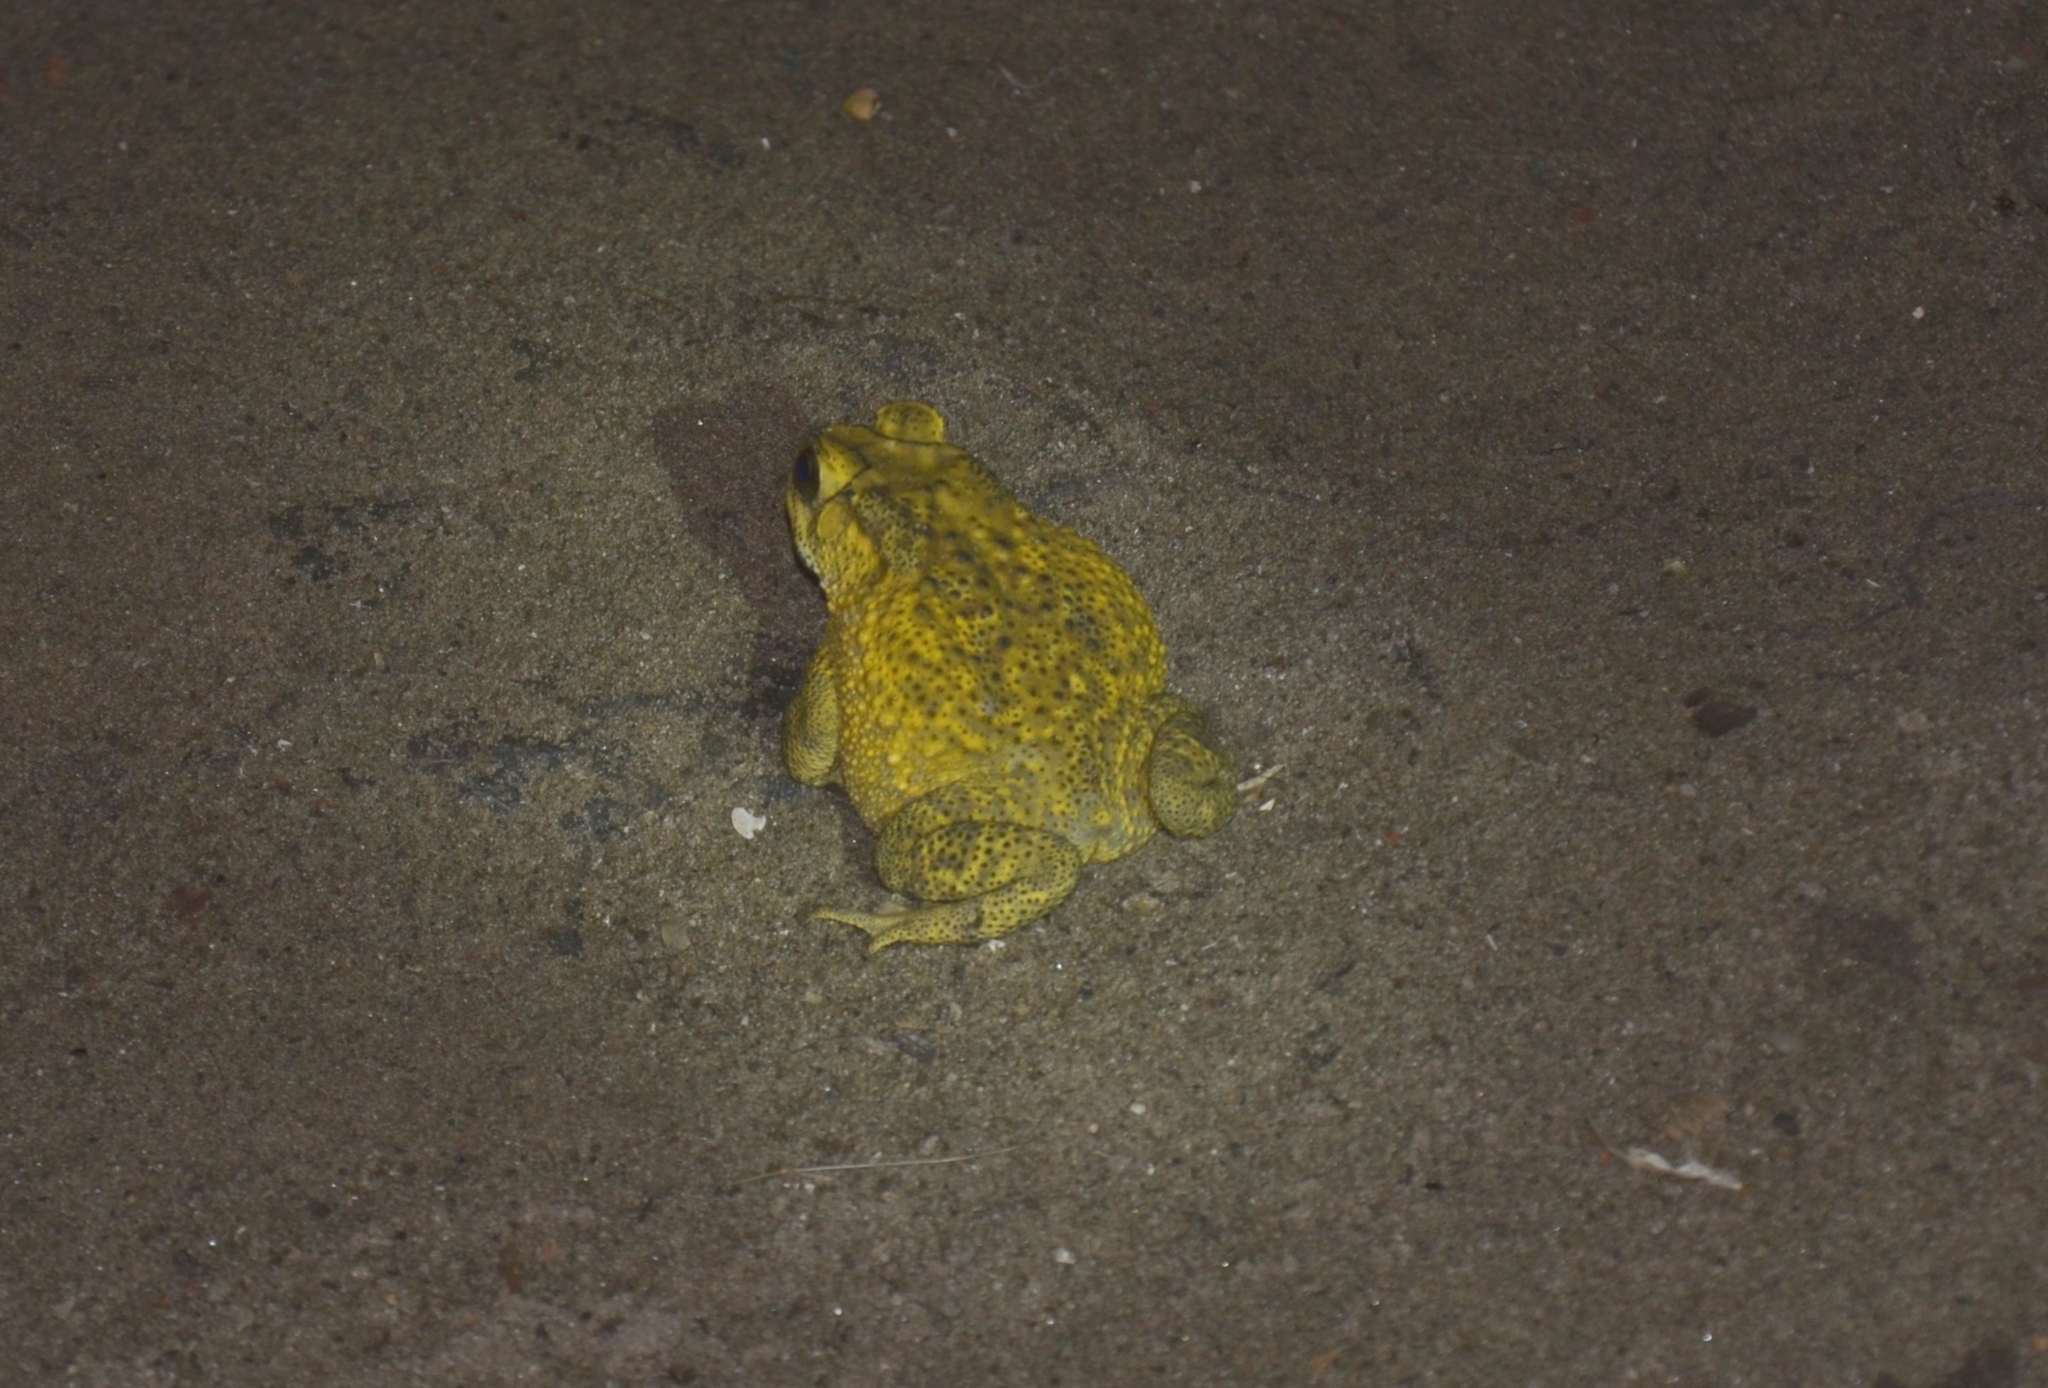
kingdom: Animalia
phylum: Chordata
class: Amphibia
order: Anura
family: Bufonidae
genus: Duttaphrynus
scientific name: Duttaphrynus melanostictus
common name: Common sunda toad
